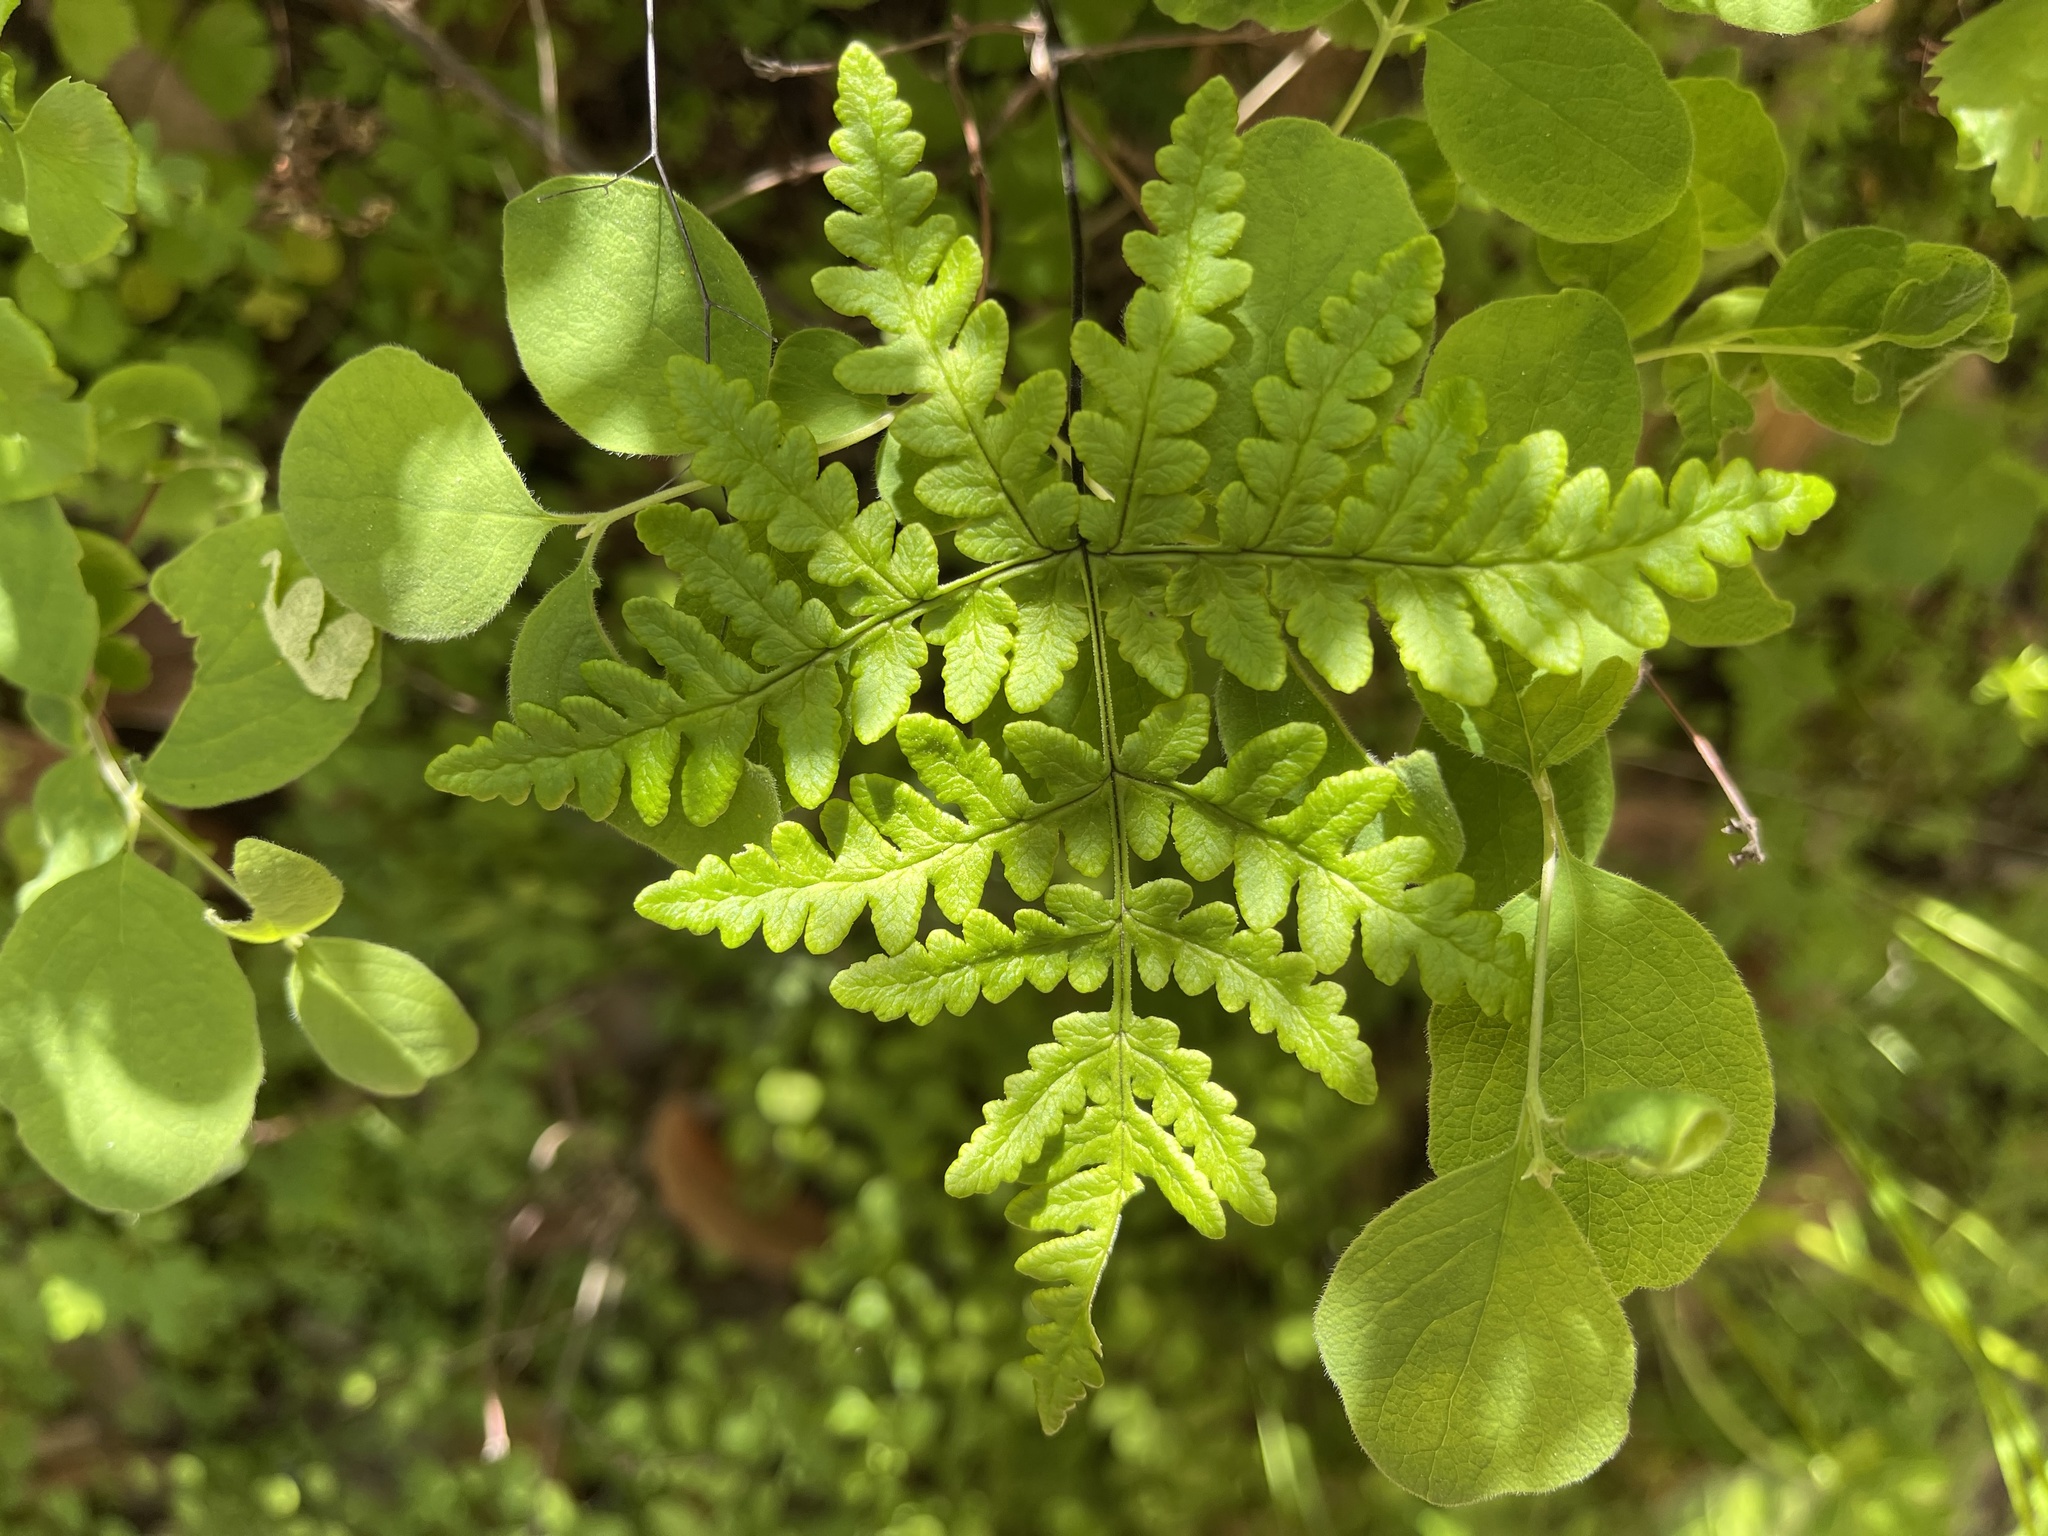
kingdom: Plantae
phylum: Tracheophyta
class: Polypodiopsida
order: Polypodiales
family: Pteridaceae
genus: Pentagramma
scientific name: Pentagramma triangularis
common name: Gold fern
